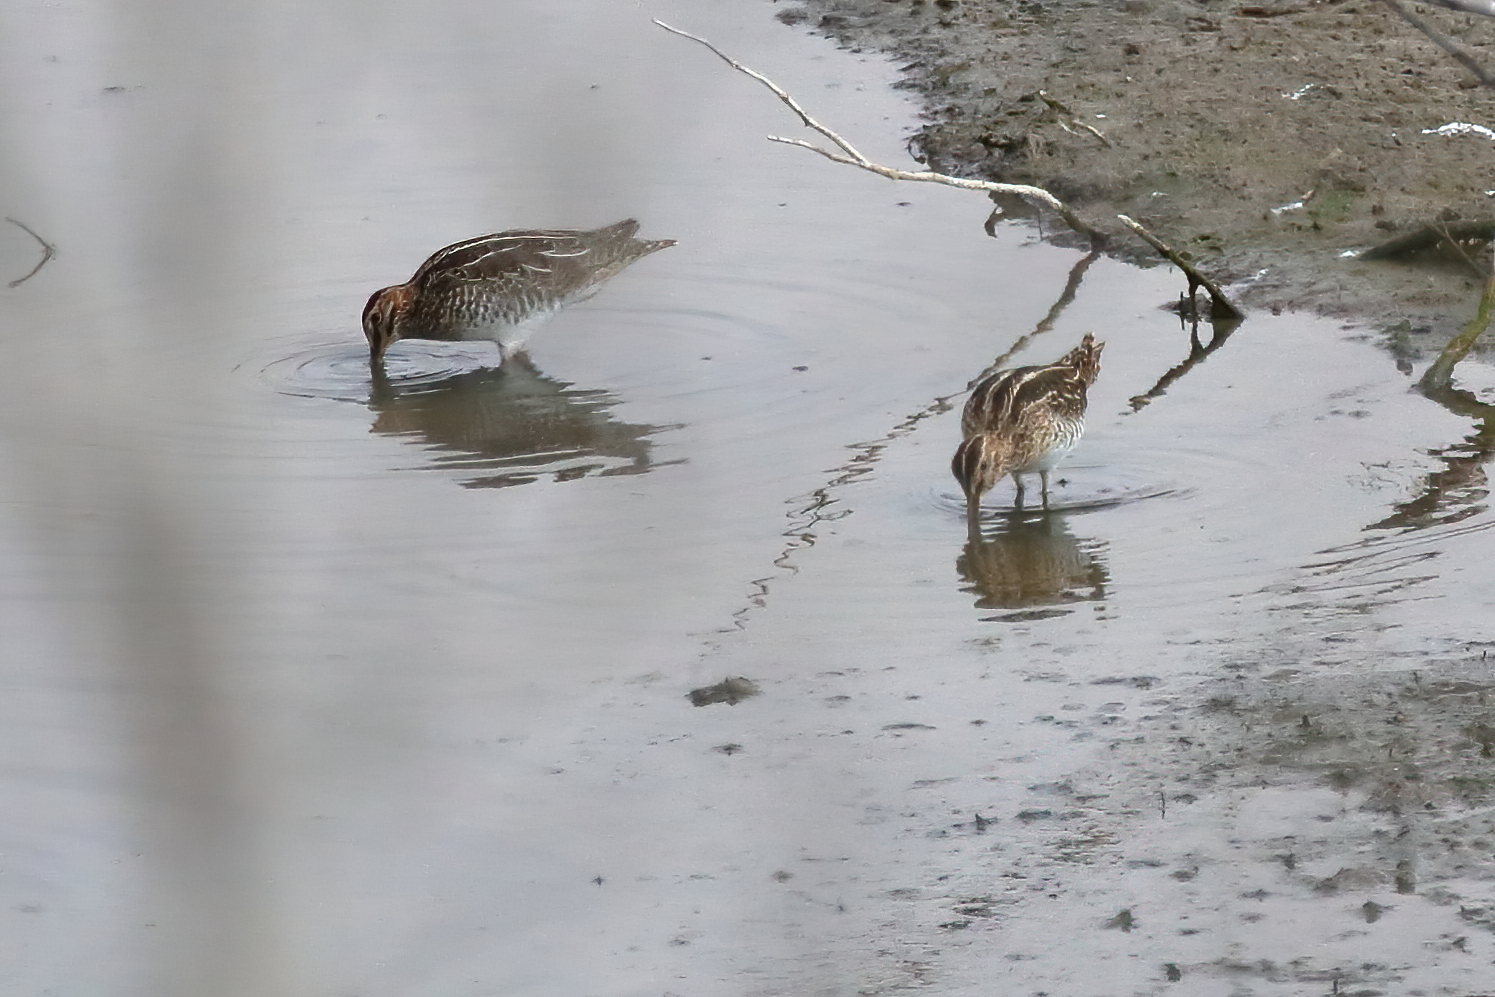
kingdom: Animalia
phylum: Chordata
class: Aves
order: Charadriiformes
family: Scolopacidae
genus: Gallinago
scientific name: Gallinago delicata
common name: Wilson's snipe
